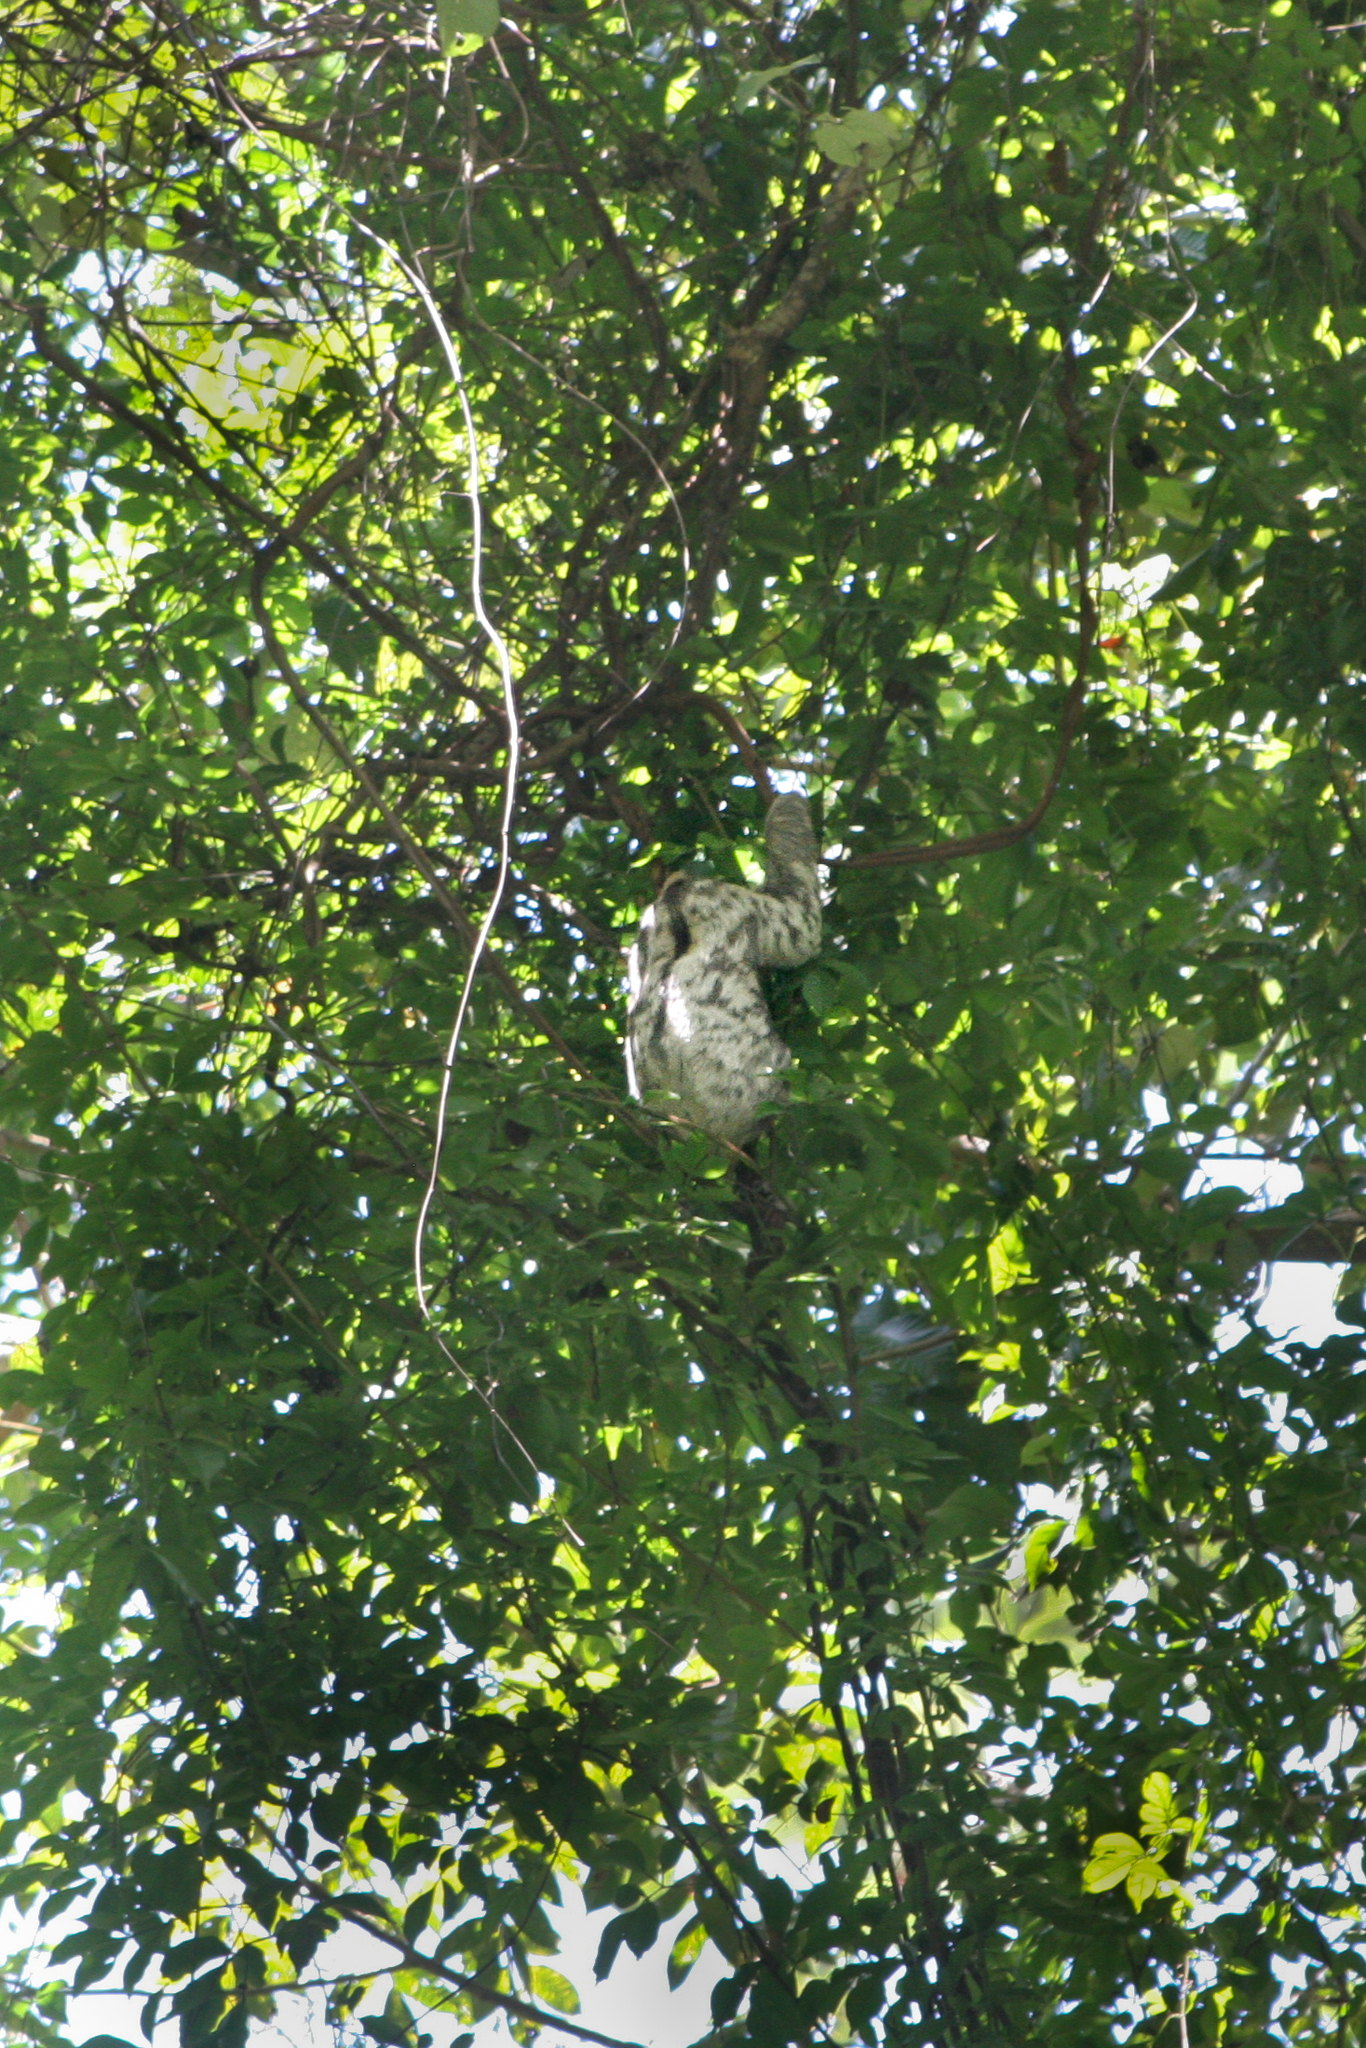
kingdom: Animalia
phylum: Chordata
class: Mammalia
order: Pilosa
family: Bradypodidae
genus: Bradypus
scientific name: Bradypus tridactylus
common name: Pale-throated three-toed sloth
